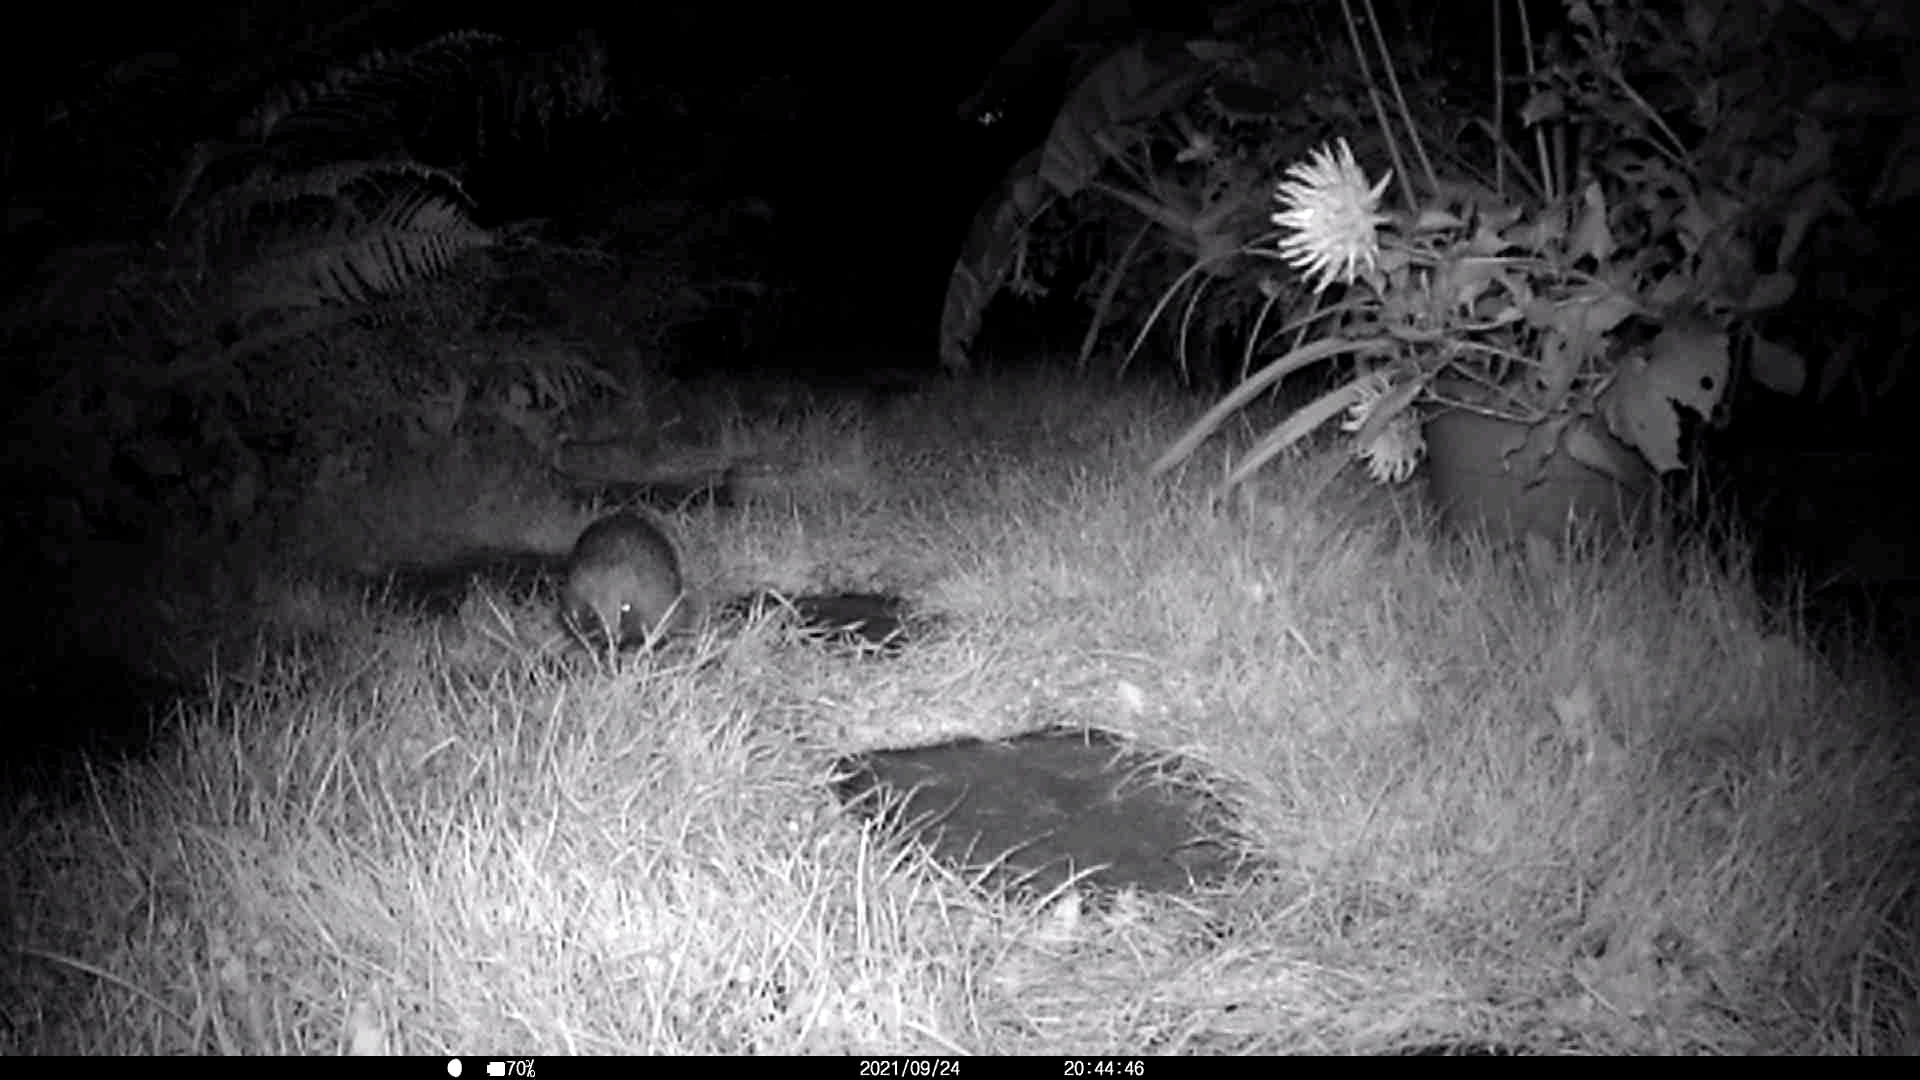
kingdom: Animalia
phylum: Chordata
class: Mammalia
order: Erinaceomorpha
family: Erinaceidae
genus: Erinaceus
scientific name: Erinaceus europaeus
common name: West european hedgehog
